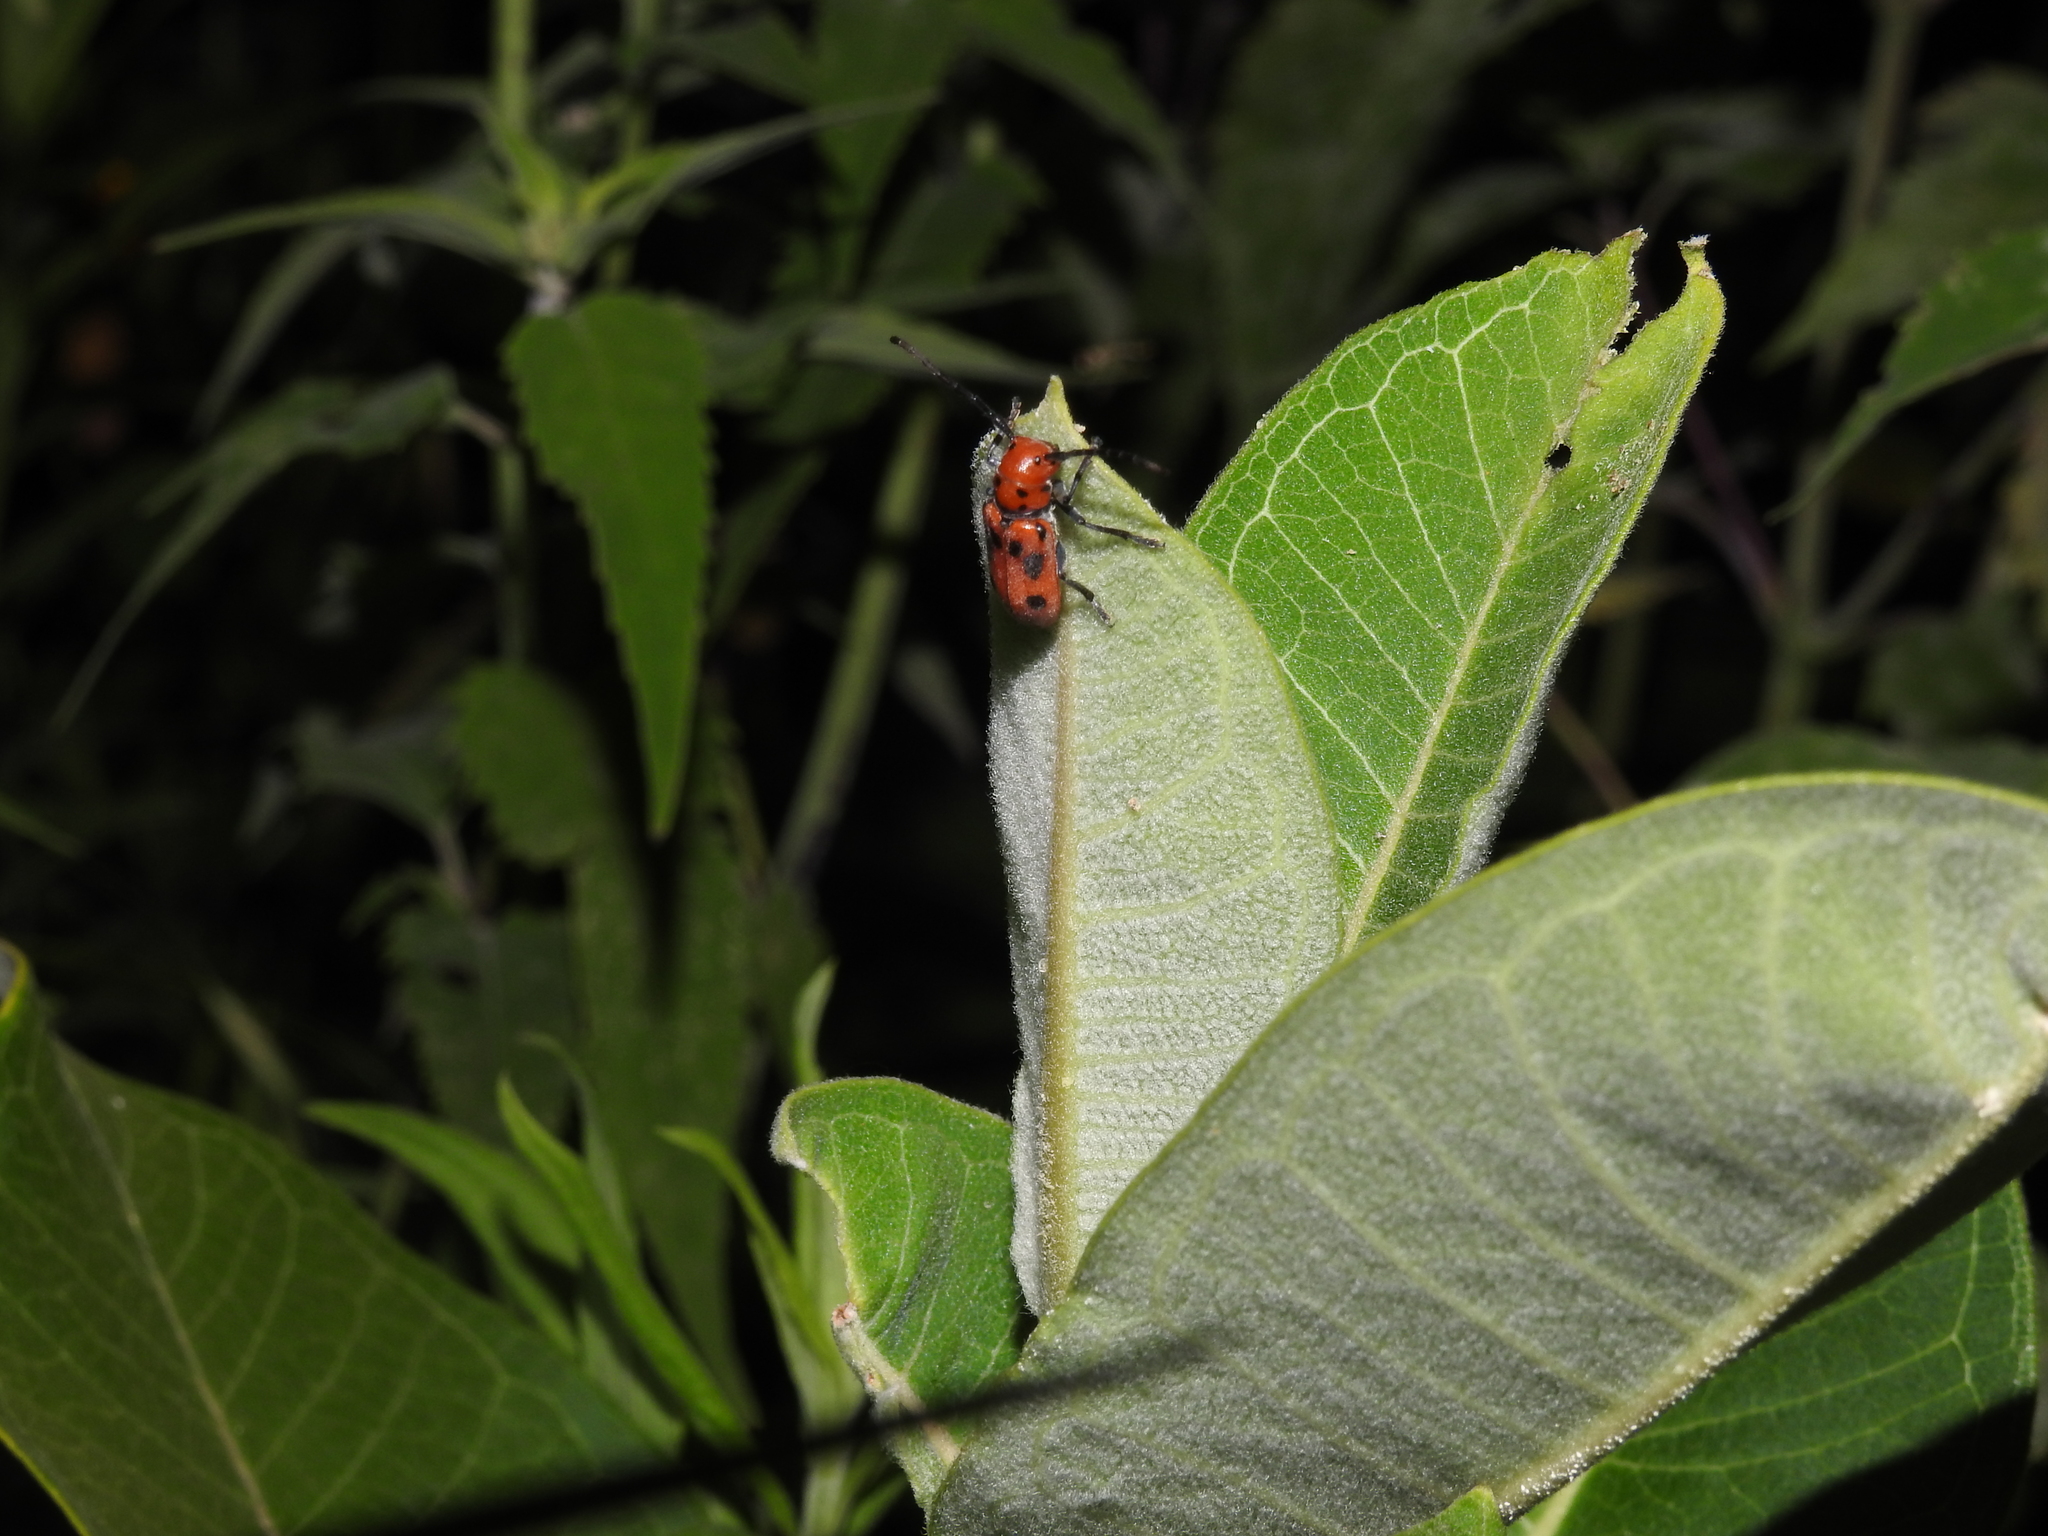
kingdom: Animalia
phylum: Arthropoda
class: Insecta
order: Coleoptera
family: Cerambycidae
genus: Tetraopes
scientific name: Tetraopes tetrophthalmus
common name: Red milkweed beetle
